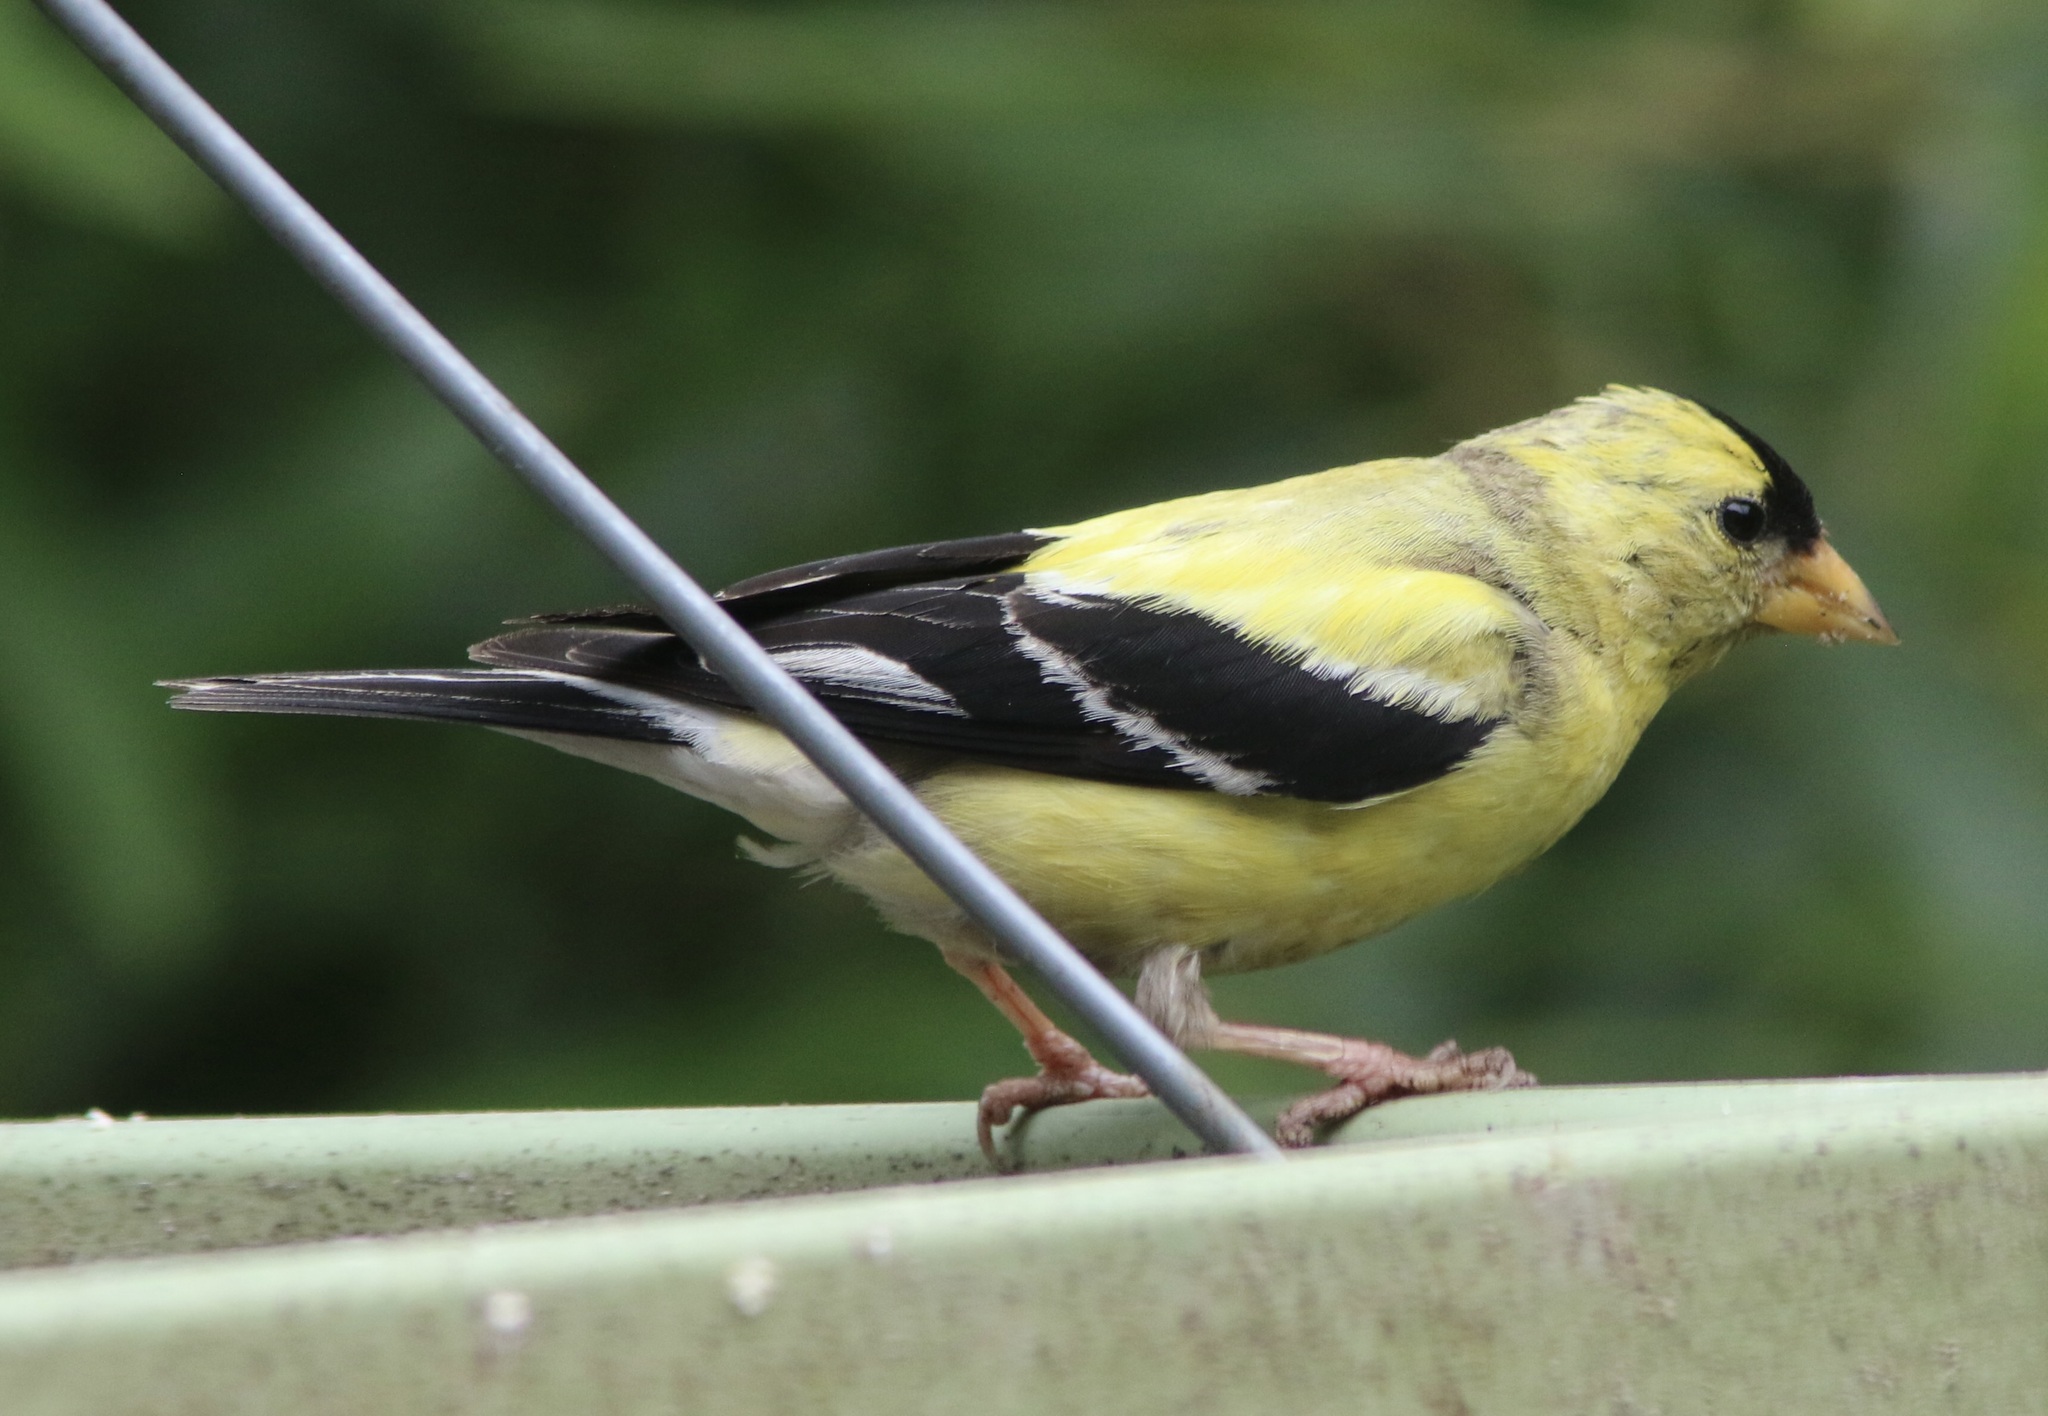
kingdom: Animalia
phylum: Chordata
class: Aves
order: Passeriformes
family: Fringillidae
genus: Spinus
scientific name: Spinus tristis
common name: American goldfinch
